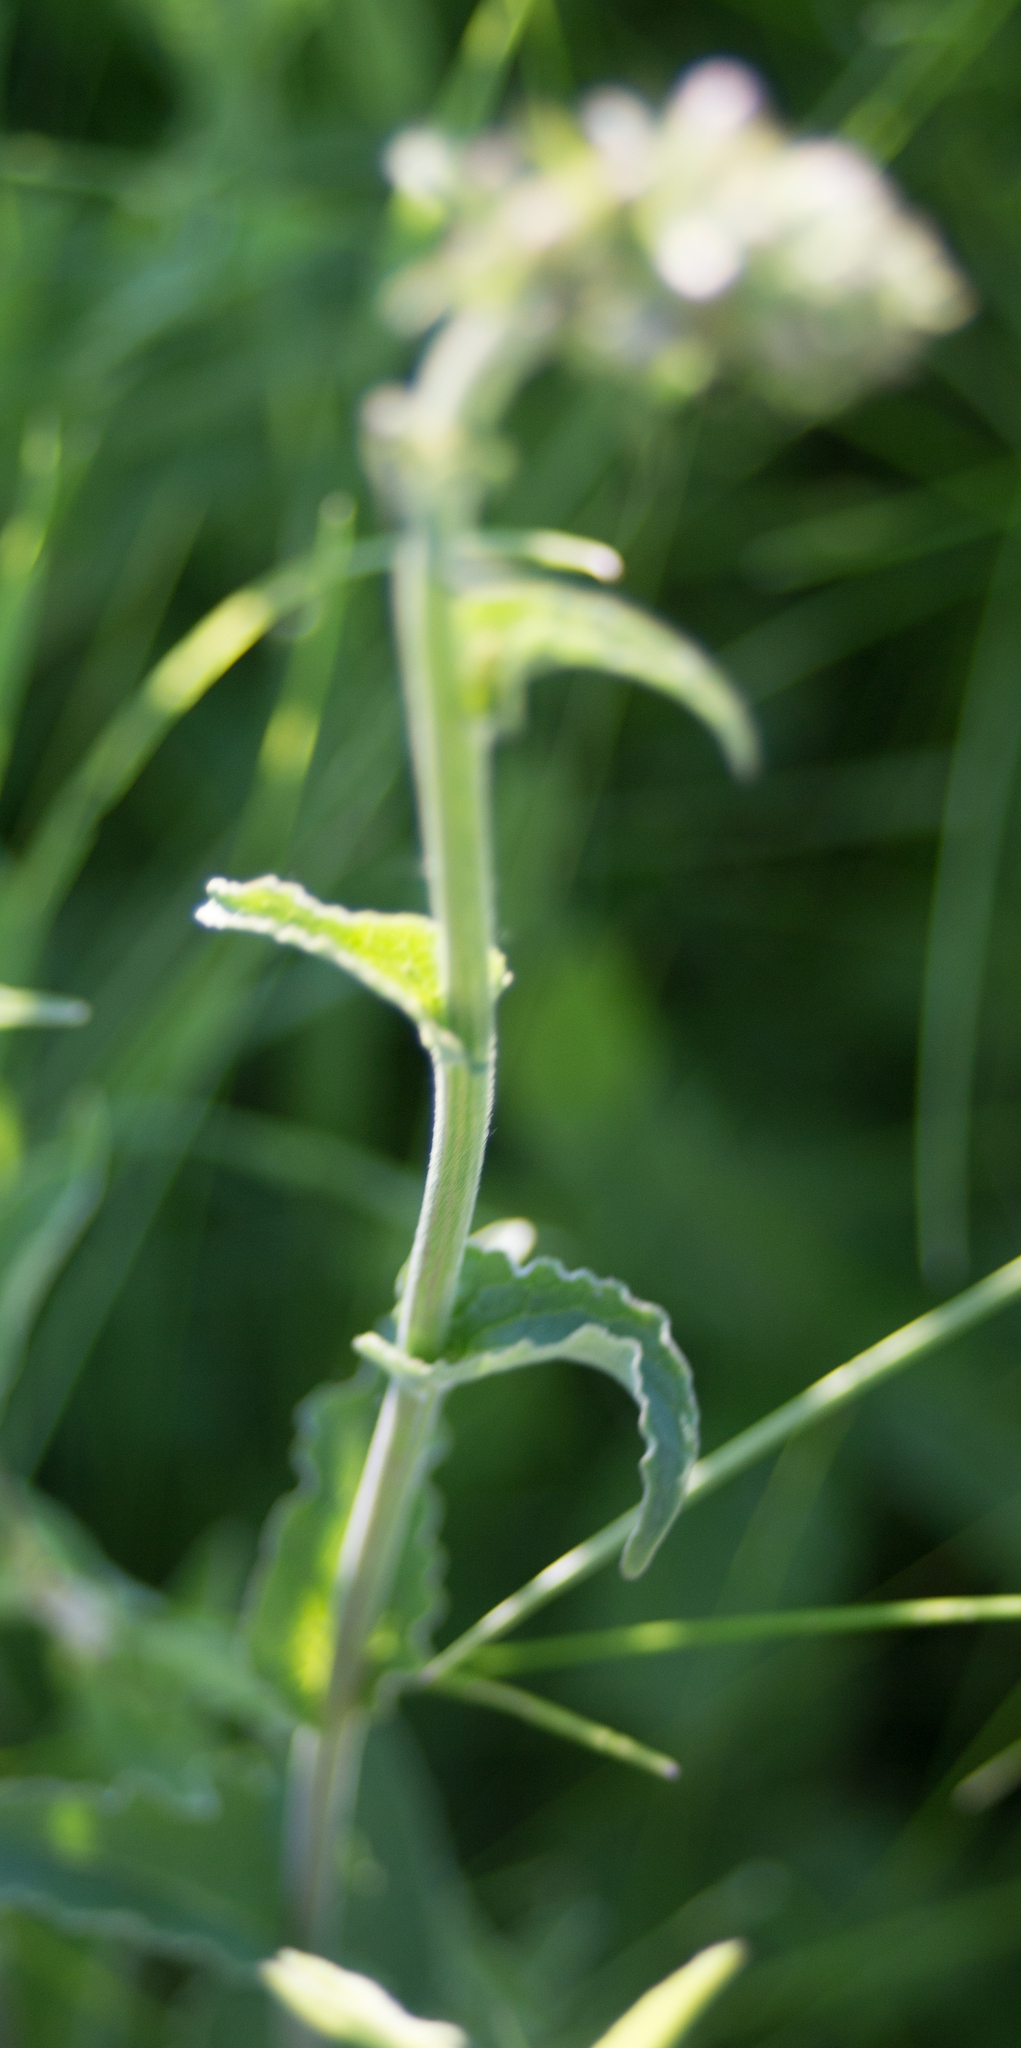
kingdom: Plantae
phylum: Tracheophyta
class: Magnoliopsida
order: Asterales
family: Campanulaceae
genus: Campanula
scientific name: Campanula bononiensis
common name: Pale bellflower
